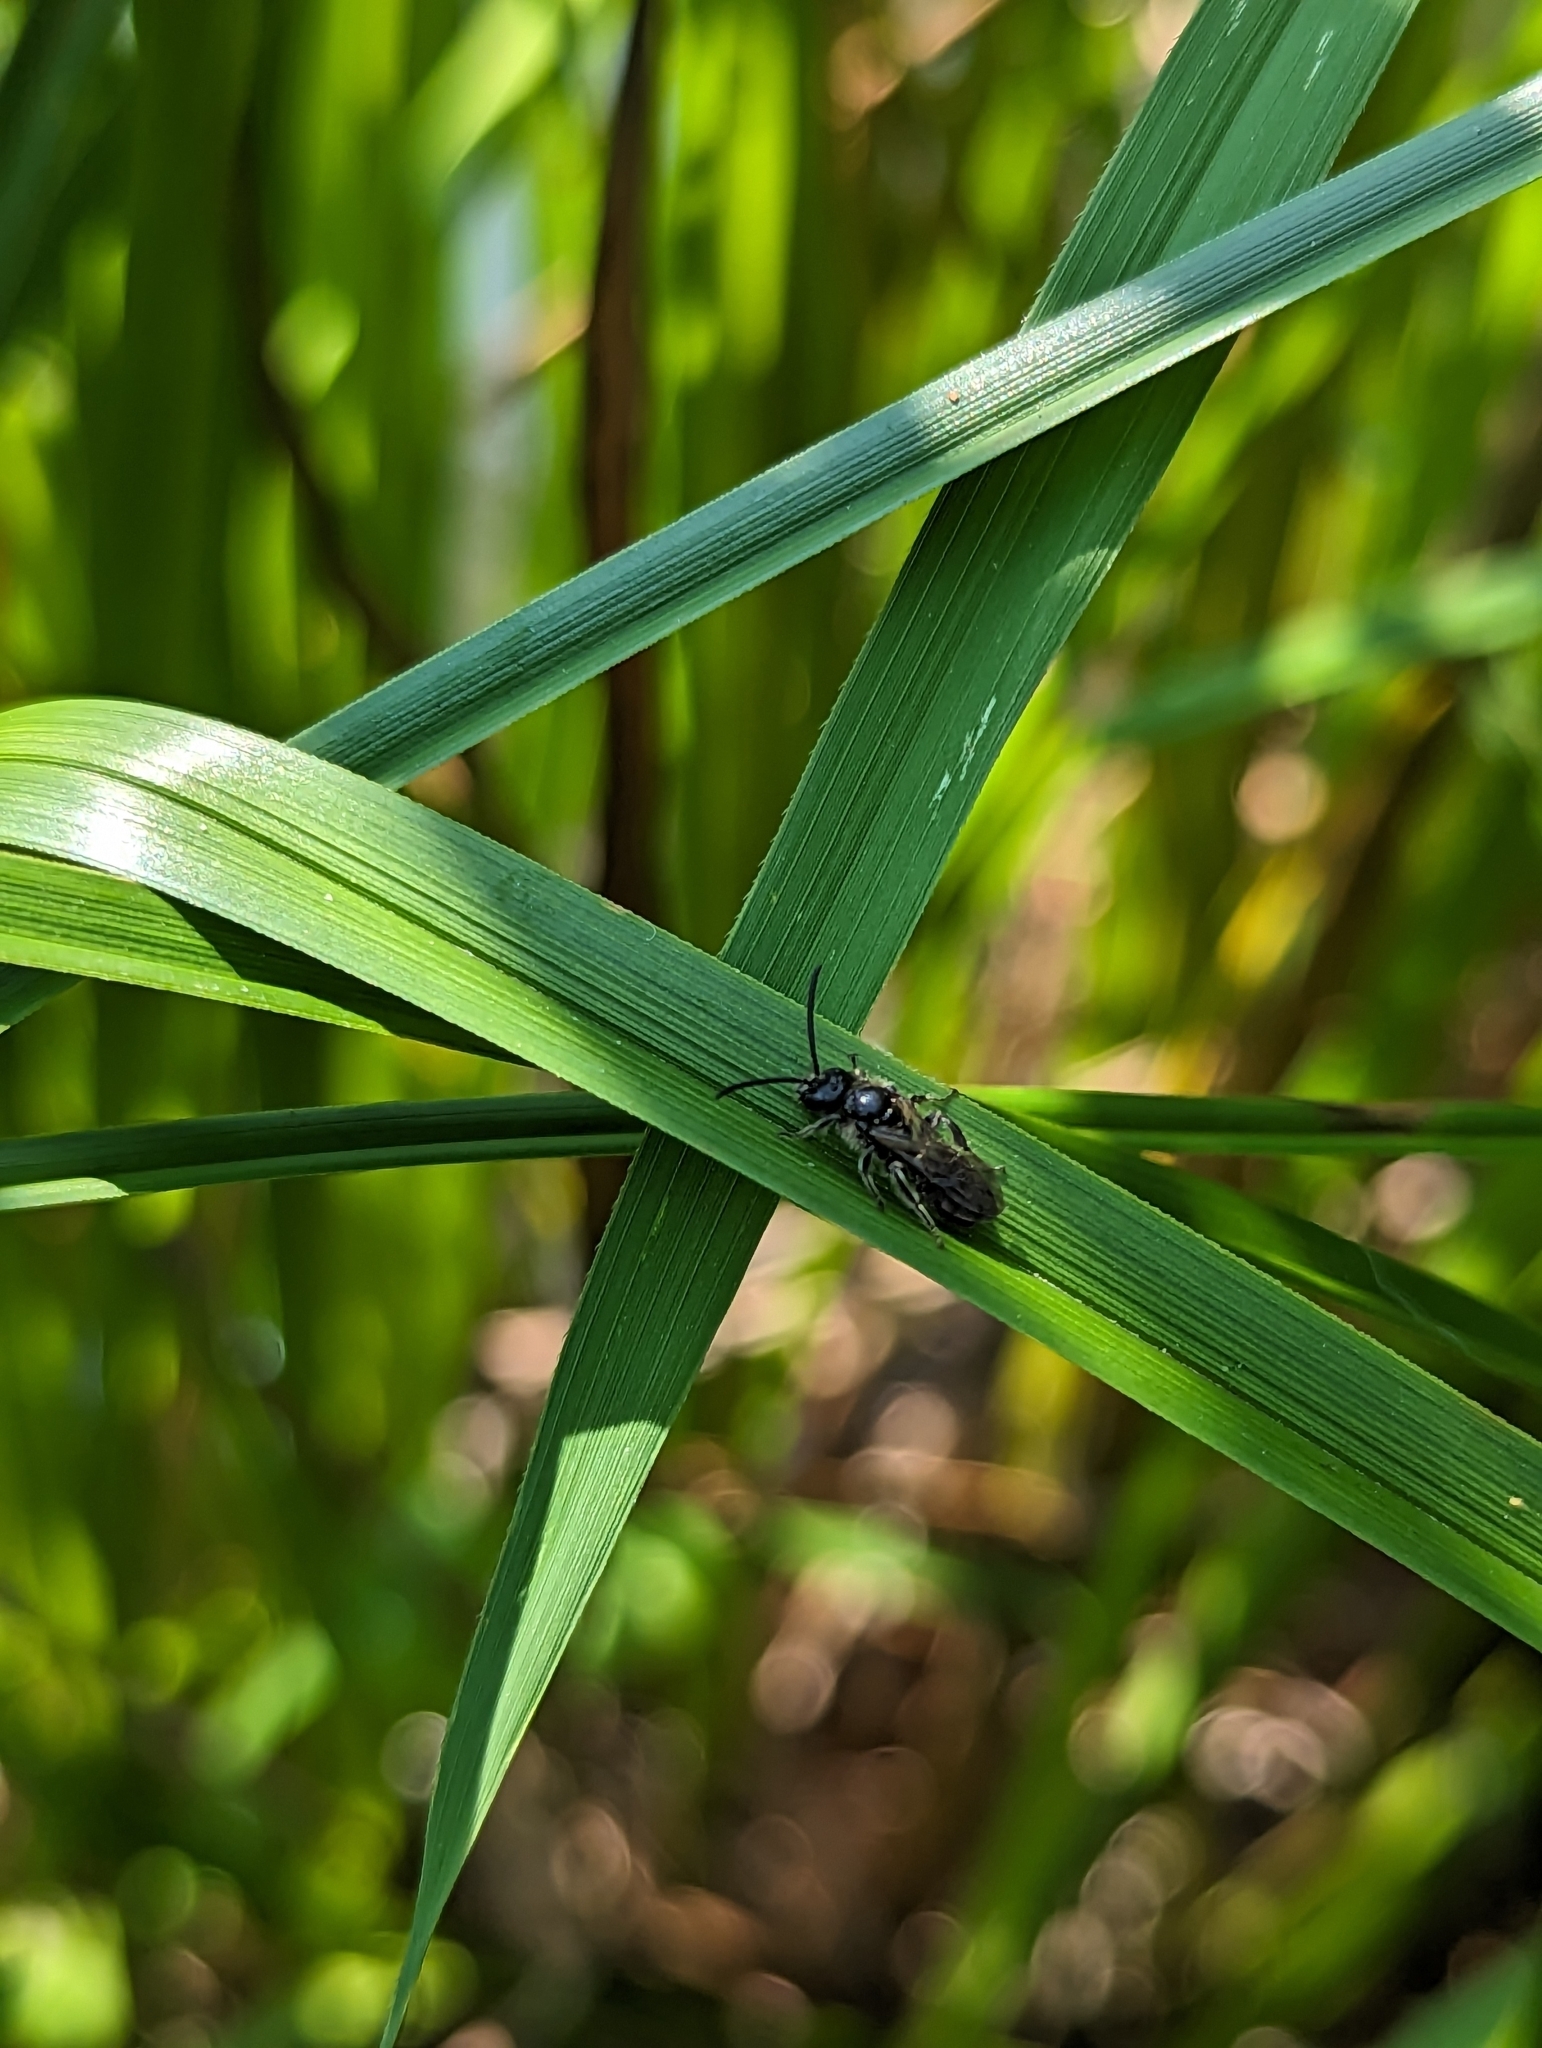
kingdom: Animalia
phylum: Arthropoda
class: Insecta
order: Hymenoptera
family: Halictidae
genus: Dufourea
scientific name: Dufourea novaeangliae
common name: Pickerelweed shortface
